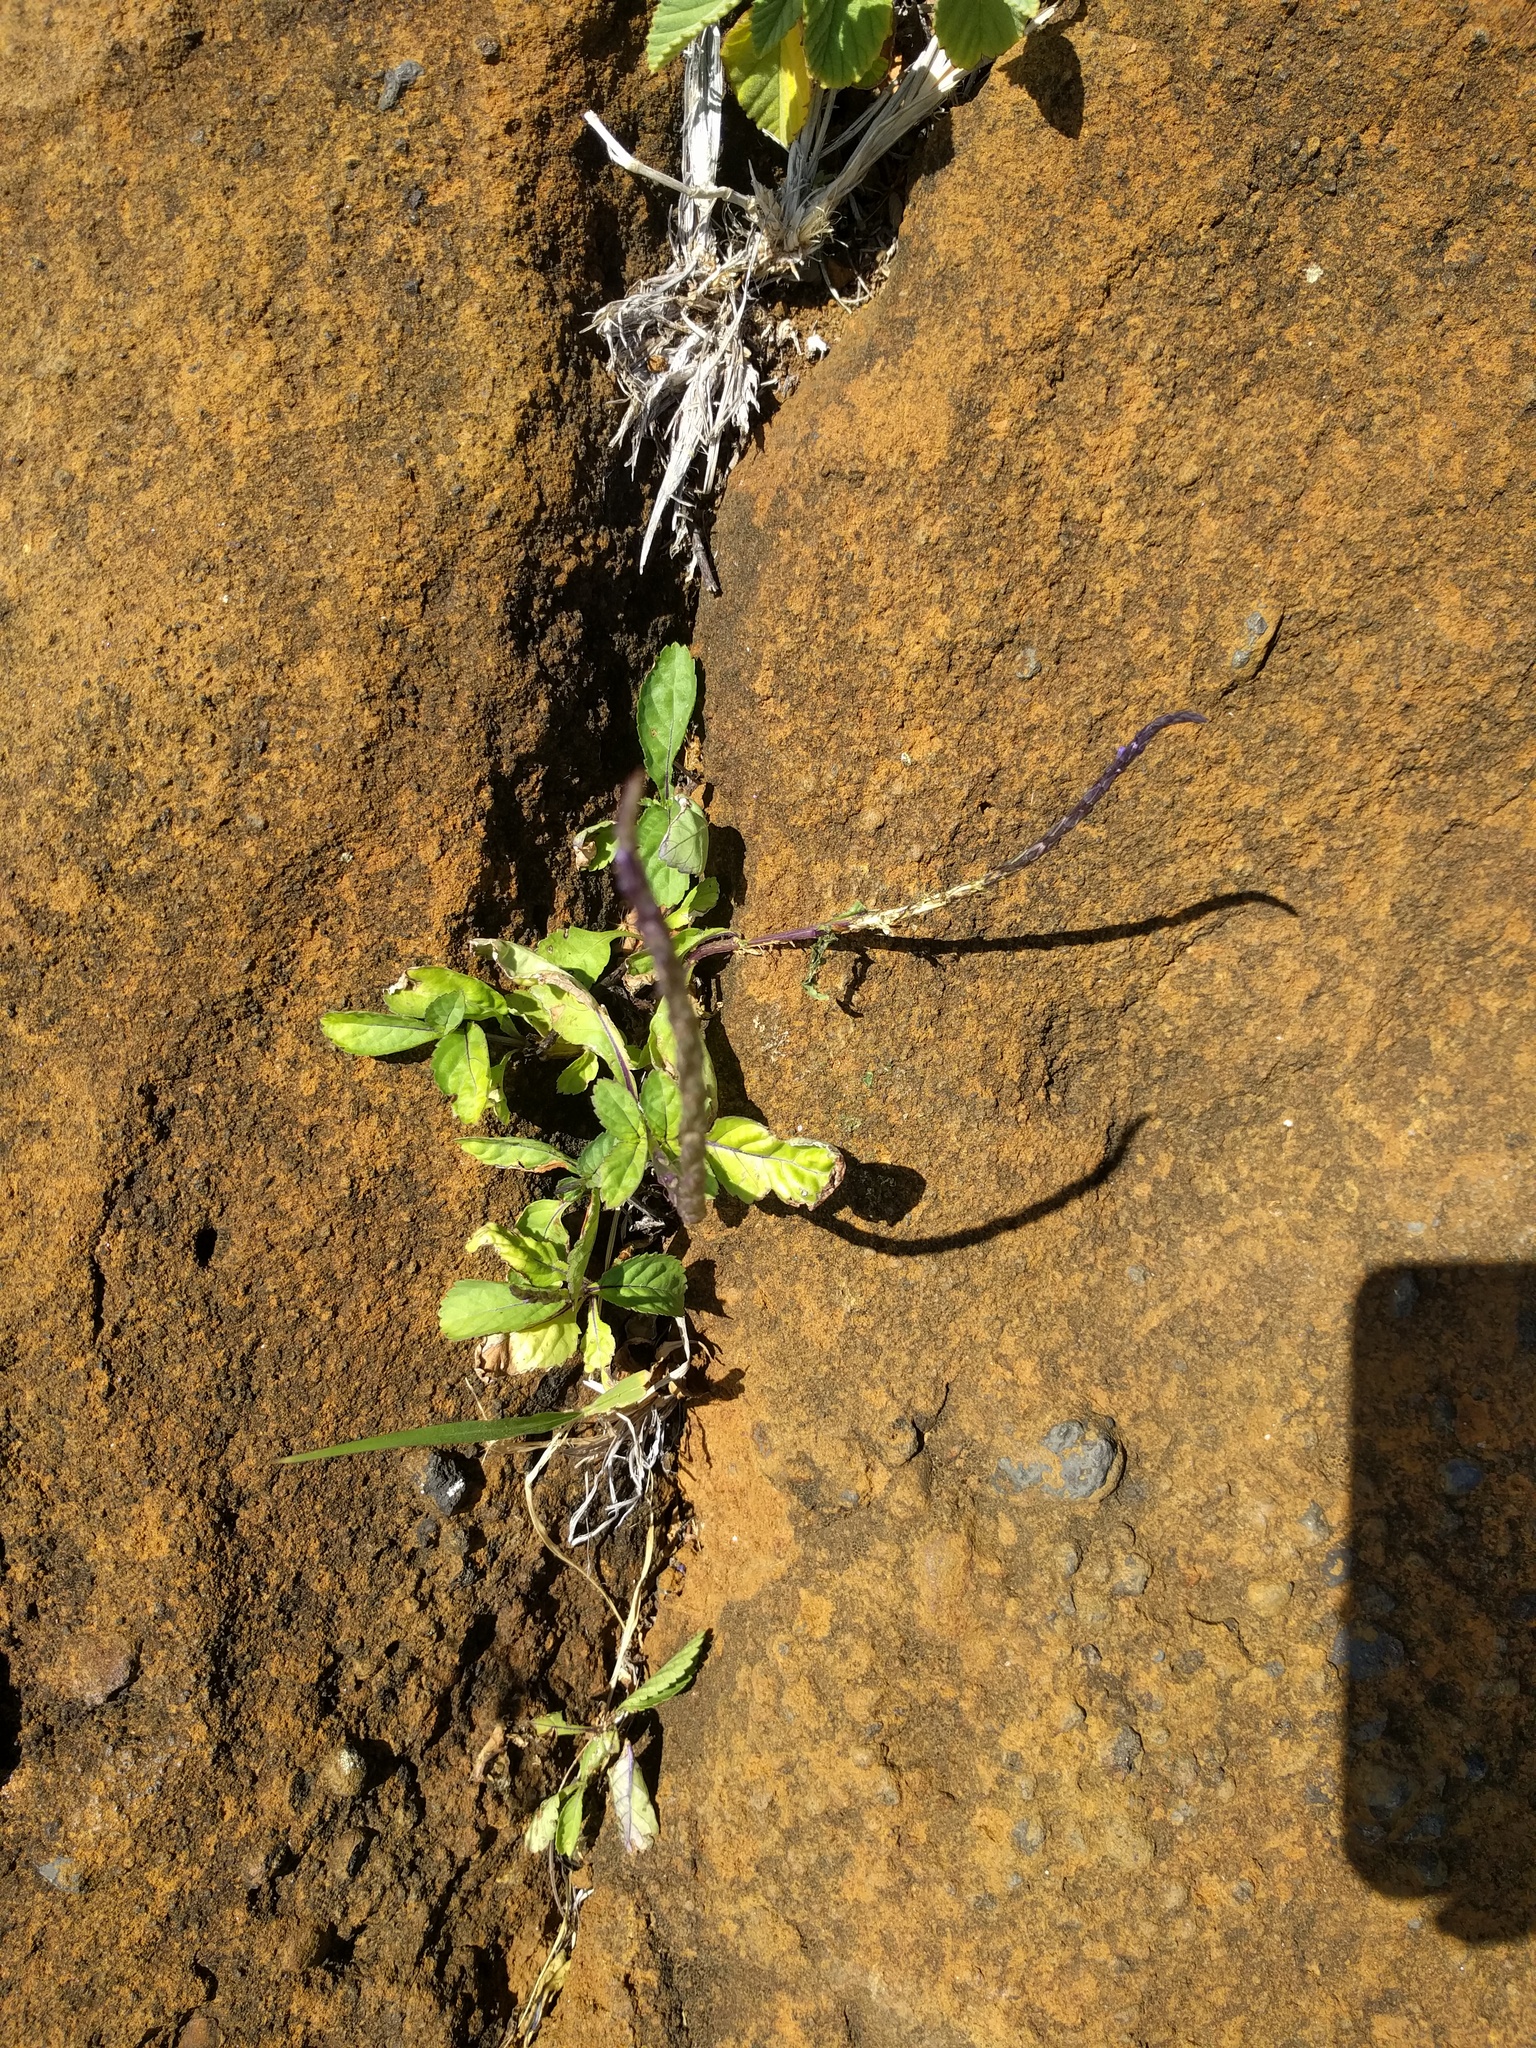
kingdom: Plantae
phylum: Tracheophyta
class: Magnoliopsida
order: Lamiales
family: Verbenaceae
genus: Stachytarpheta
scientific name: Stachytarpheta jamaicensis
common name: Light-blue snakeweed
